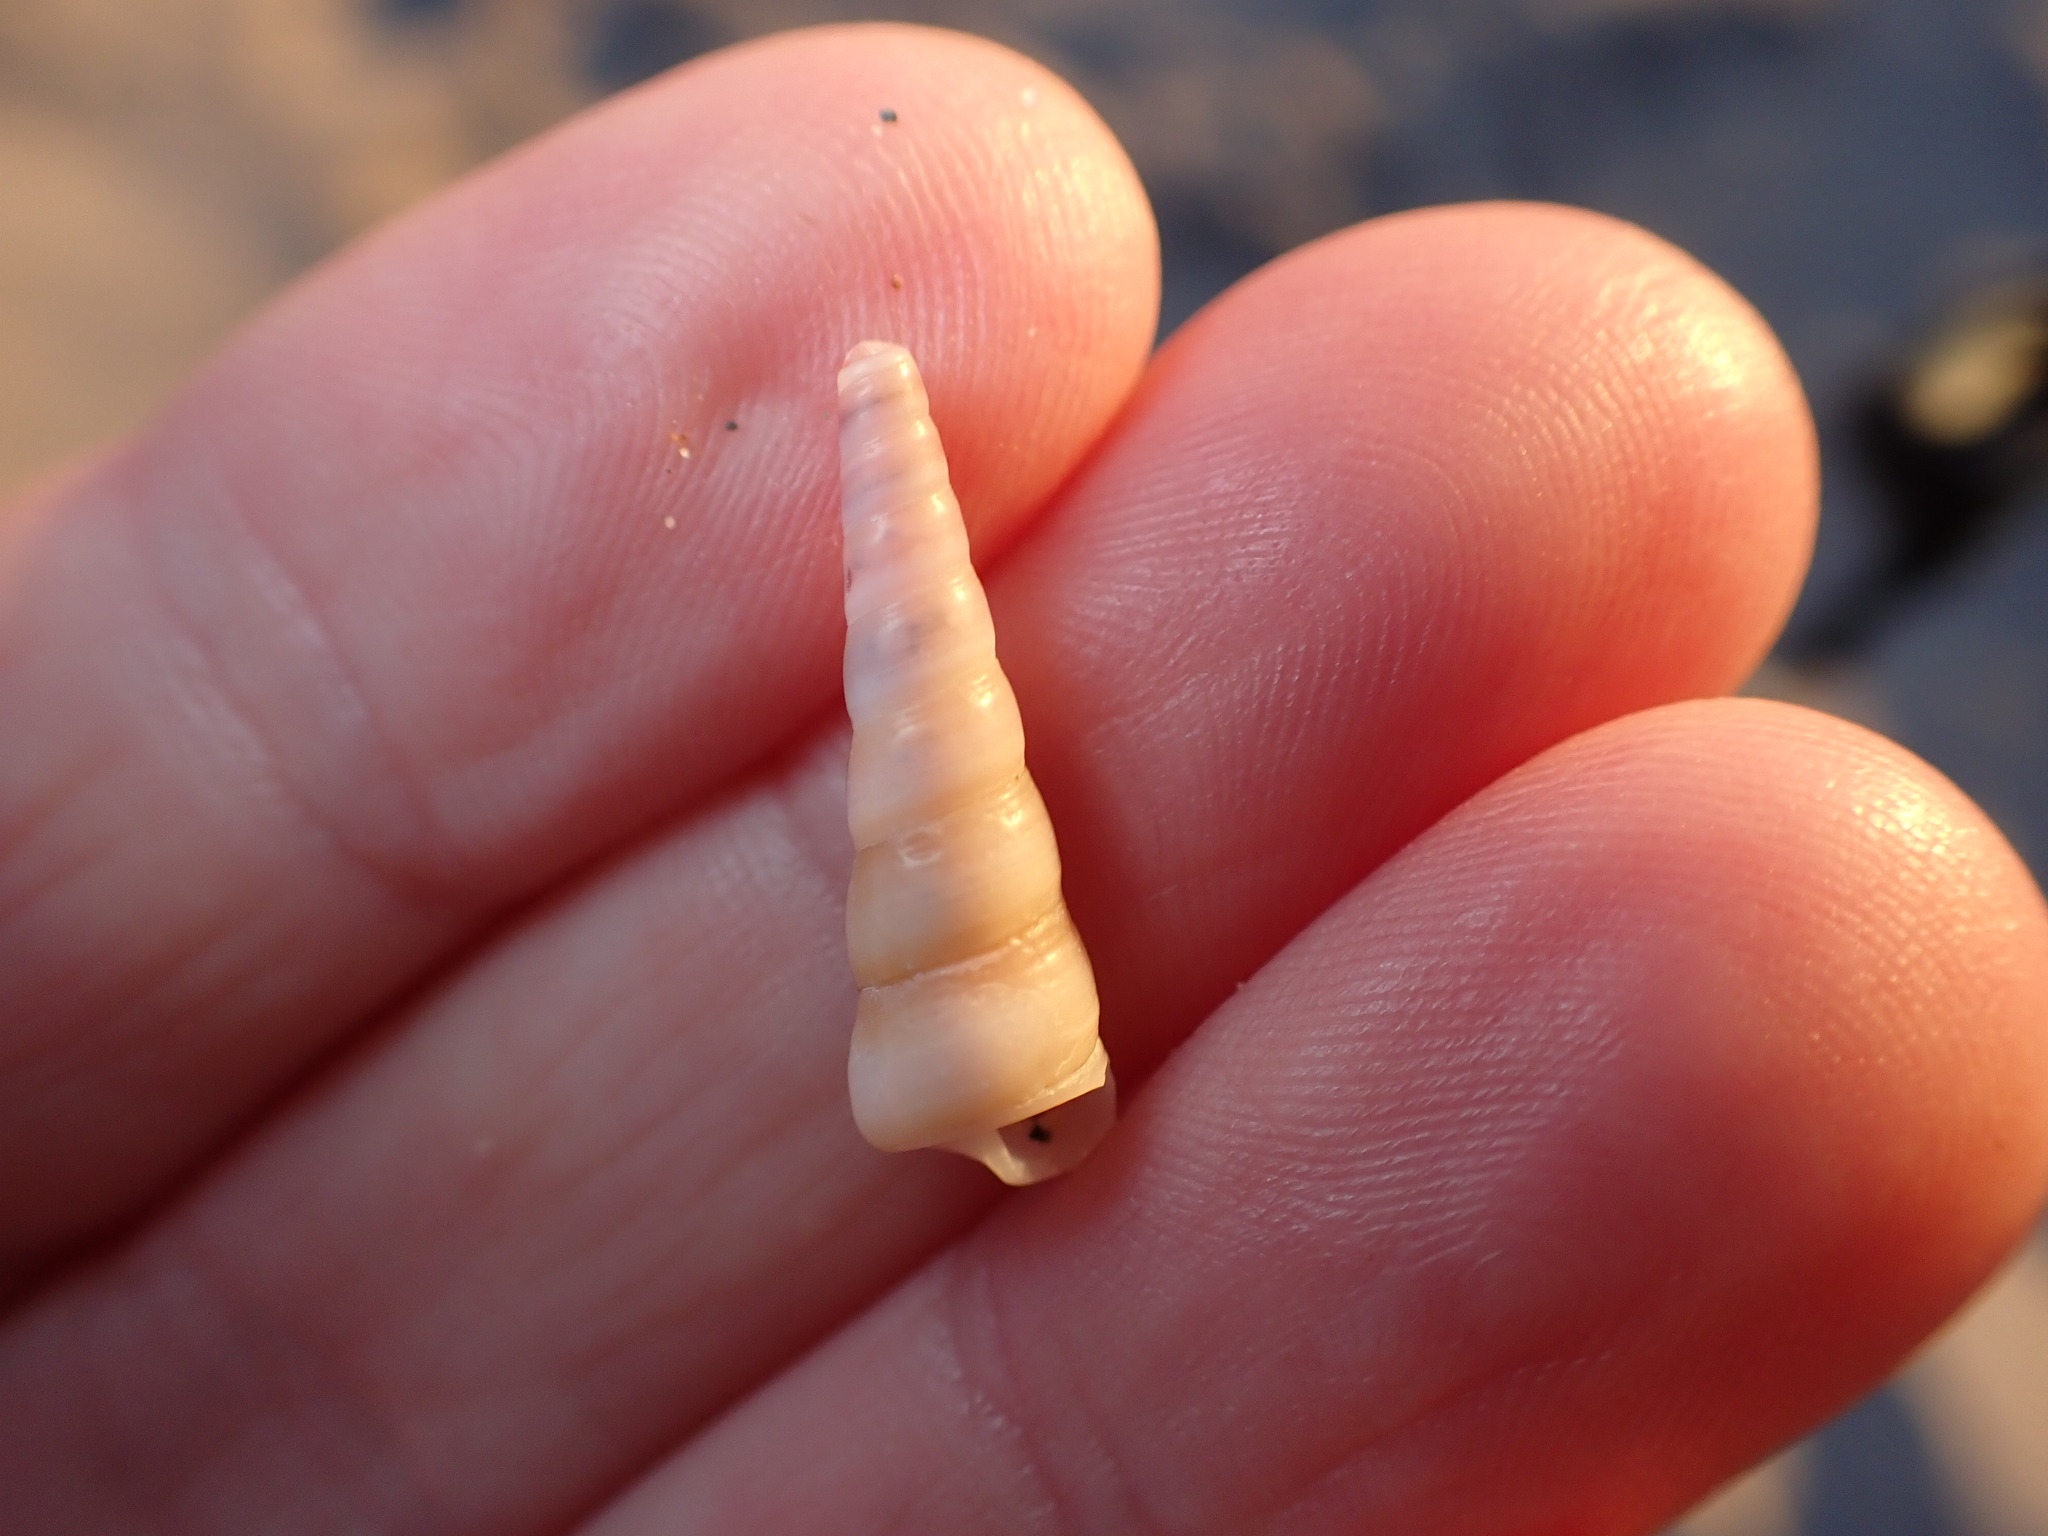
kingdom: Animalia
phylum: Mollusca
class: Gastropoda
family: Turritellidae
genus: Turritellinella
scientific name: Turritellinella tricarinata
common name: Auger shell
